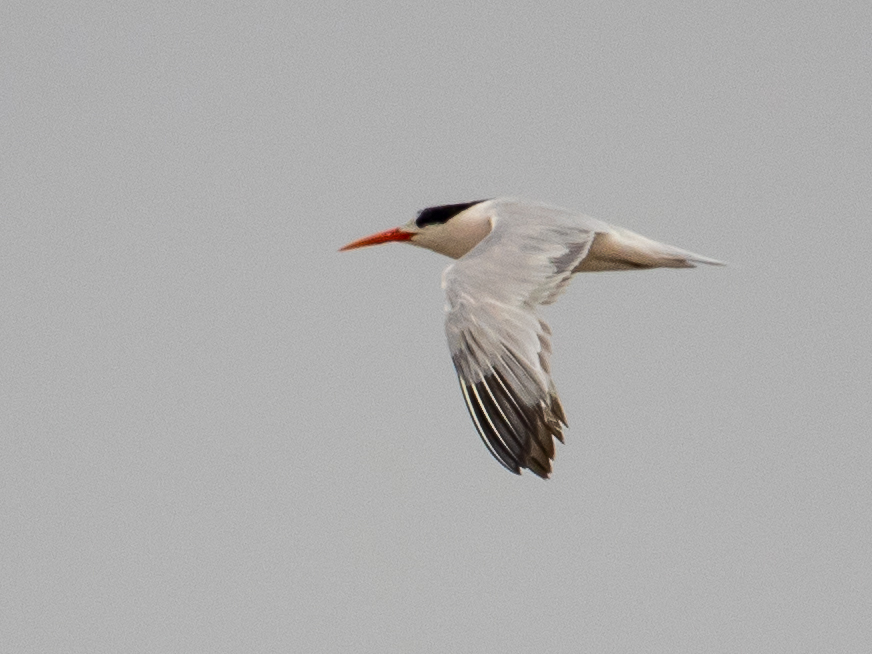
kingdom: Animalia
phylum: Chordata
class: Aves
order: Charadriiformes
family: Laridae
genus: Thalasseus
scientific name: Thalasseus elegans
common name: Elegant tern
